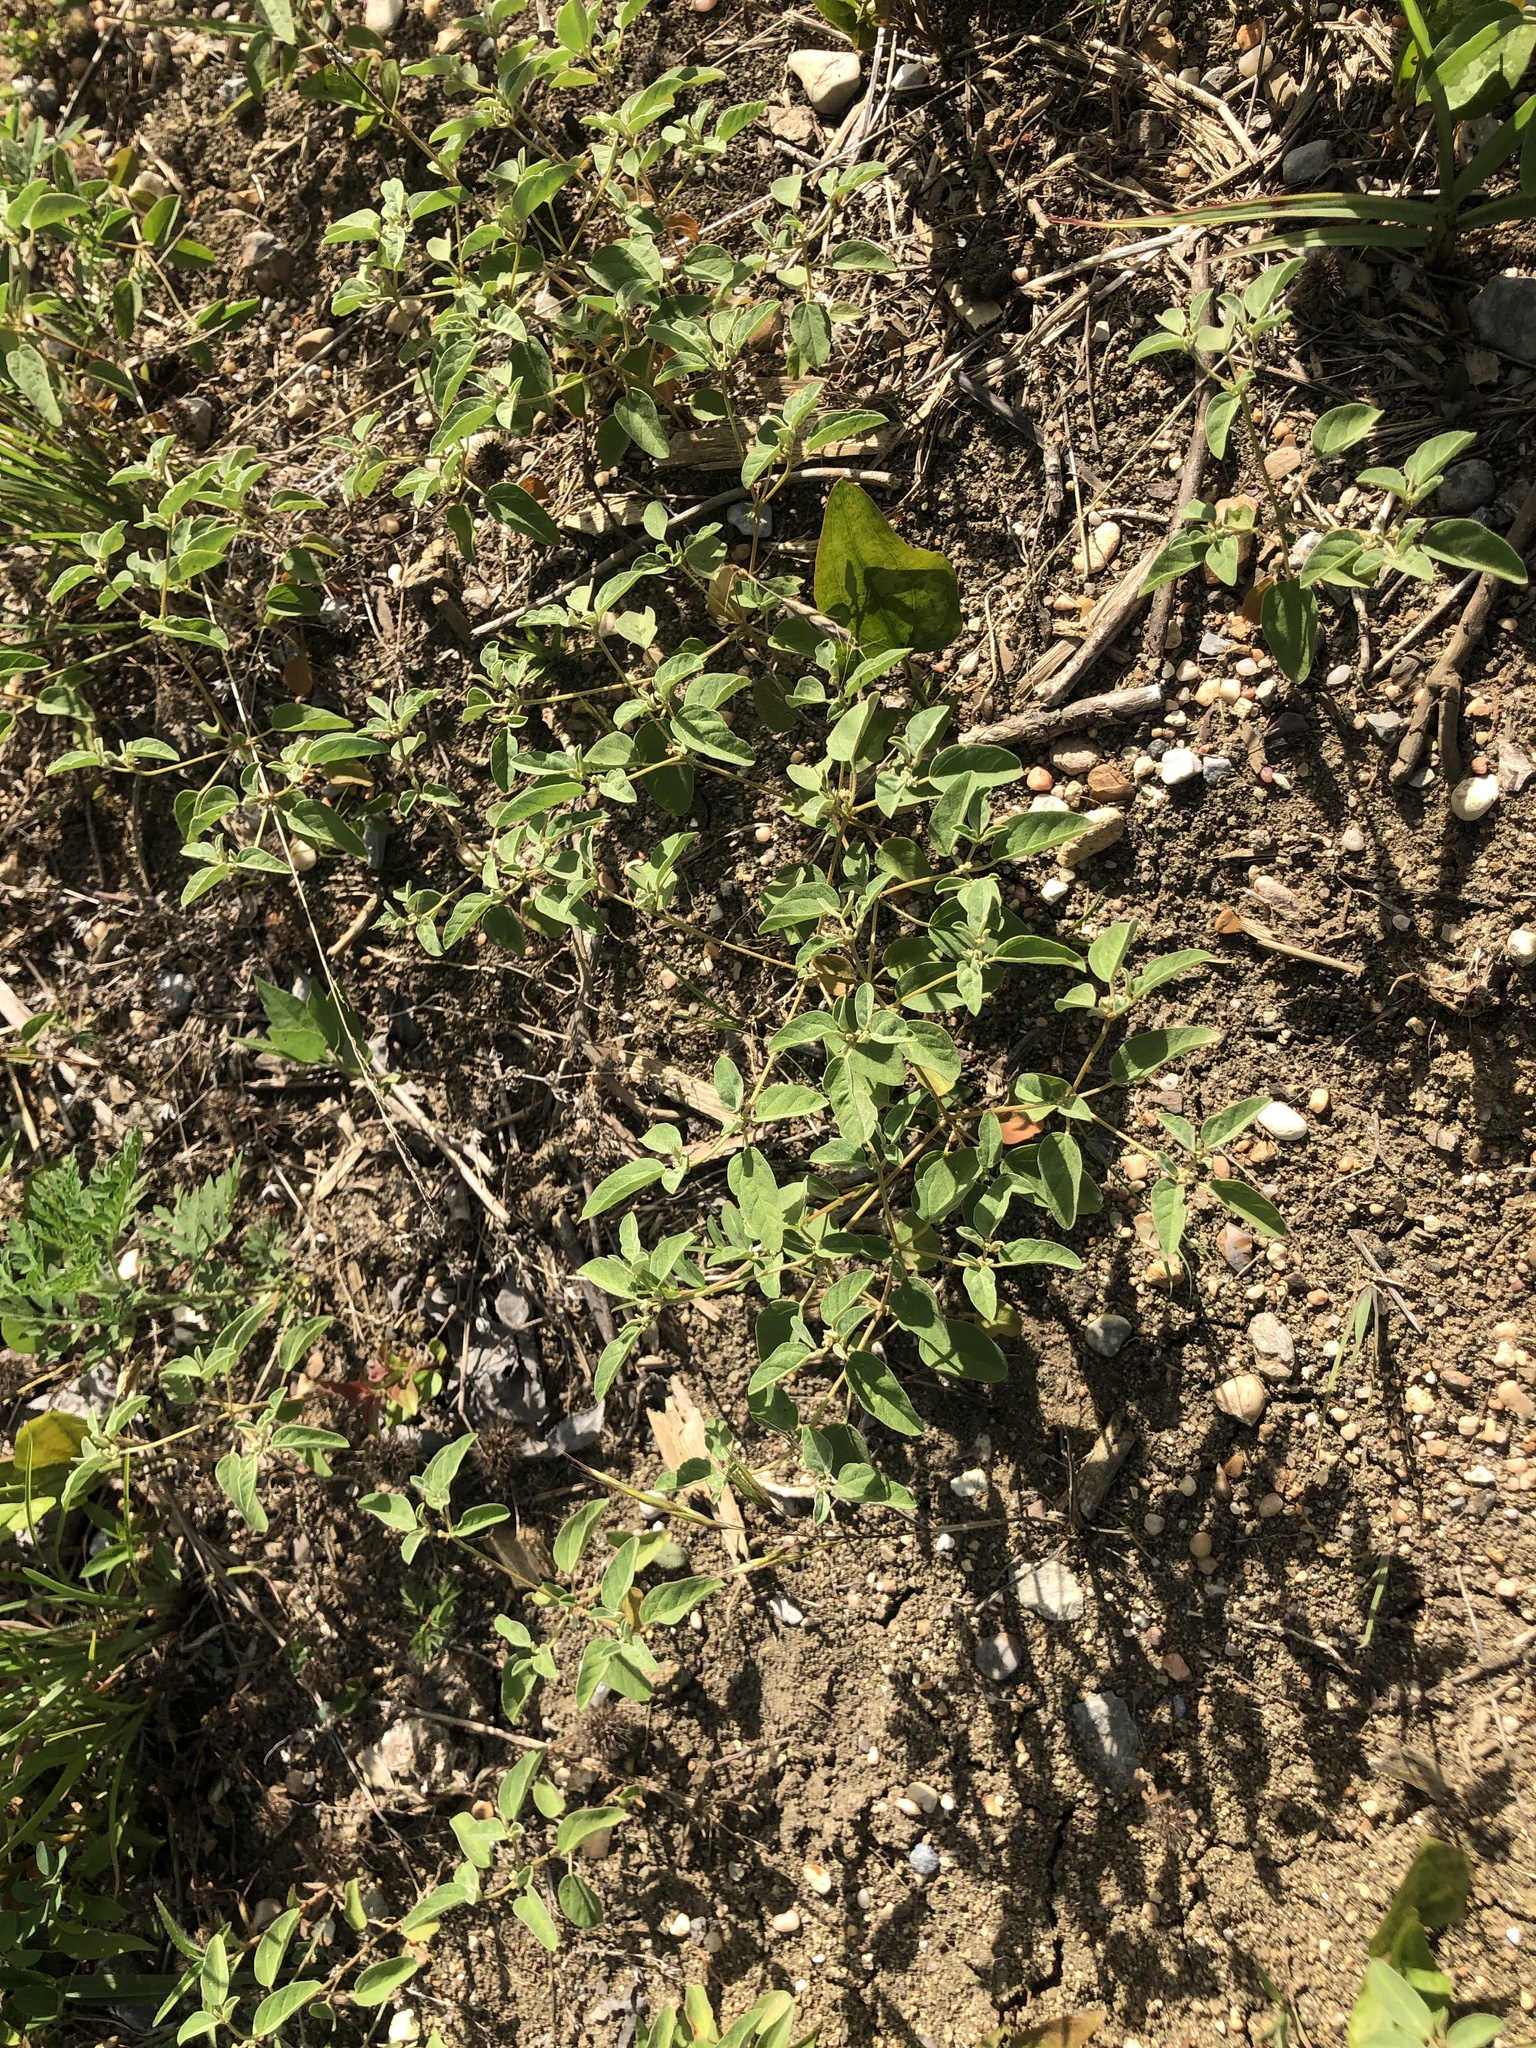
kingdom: Plantae
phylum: Tracheophyta
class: Magnoliopsida
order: Malpighiales
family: Euphorbiaceae
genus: Croton
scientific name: Croton monanthogynus
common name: One-seed croton
